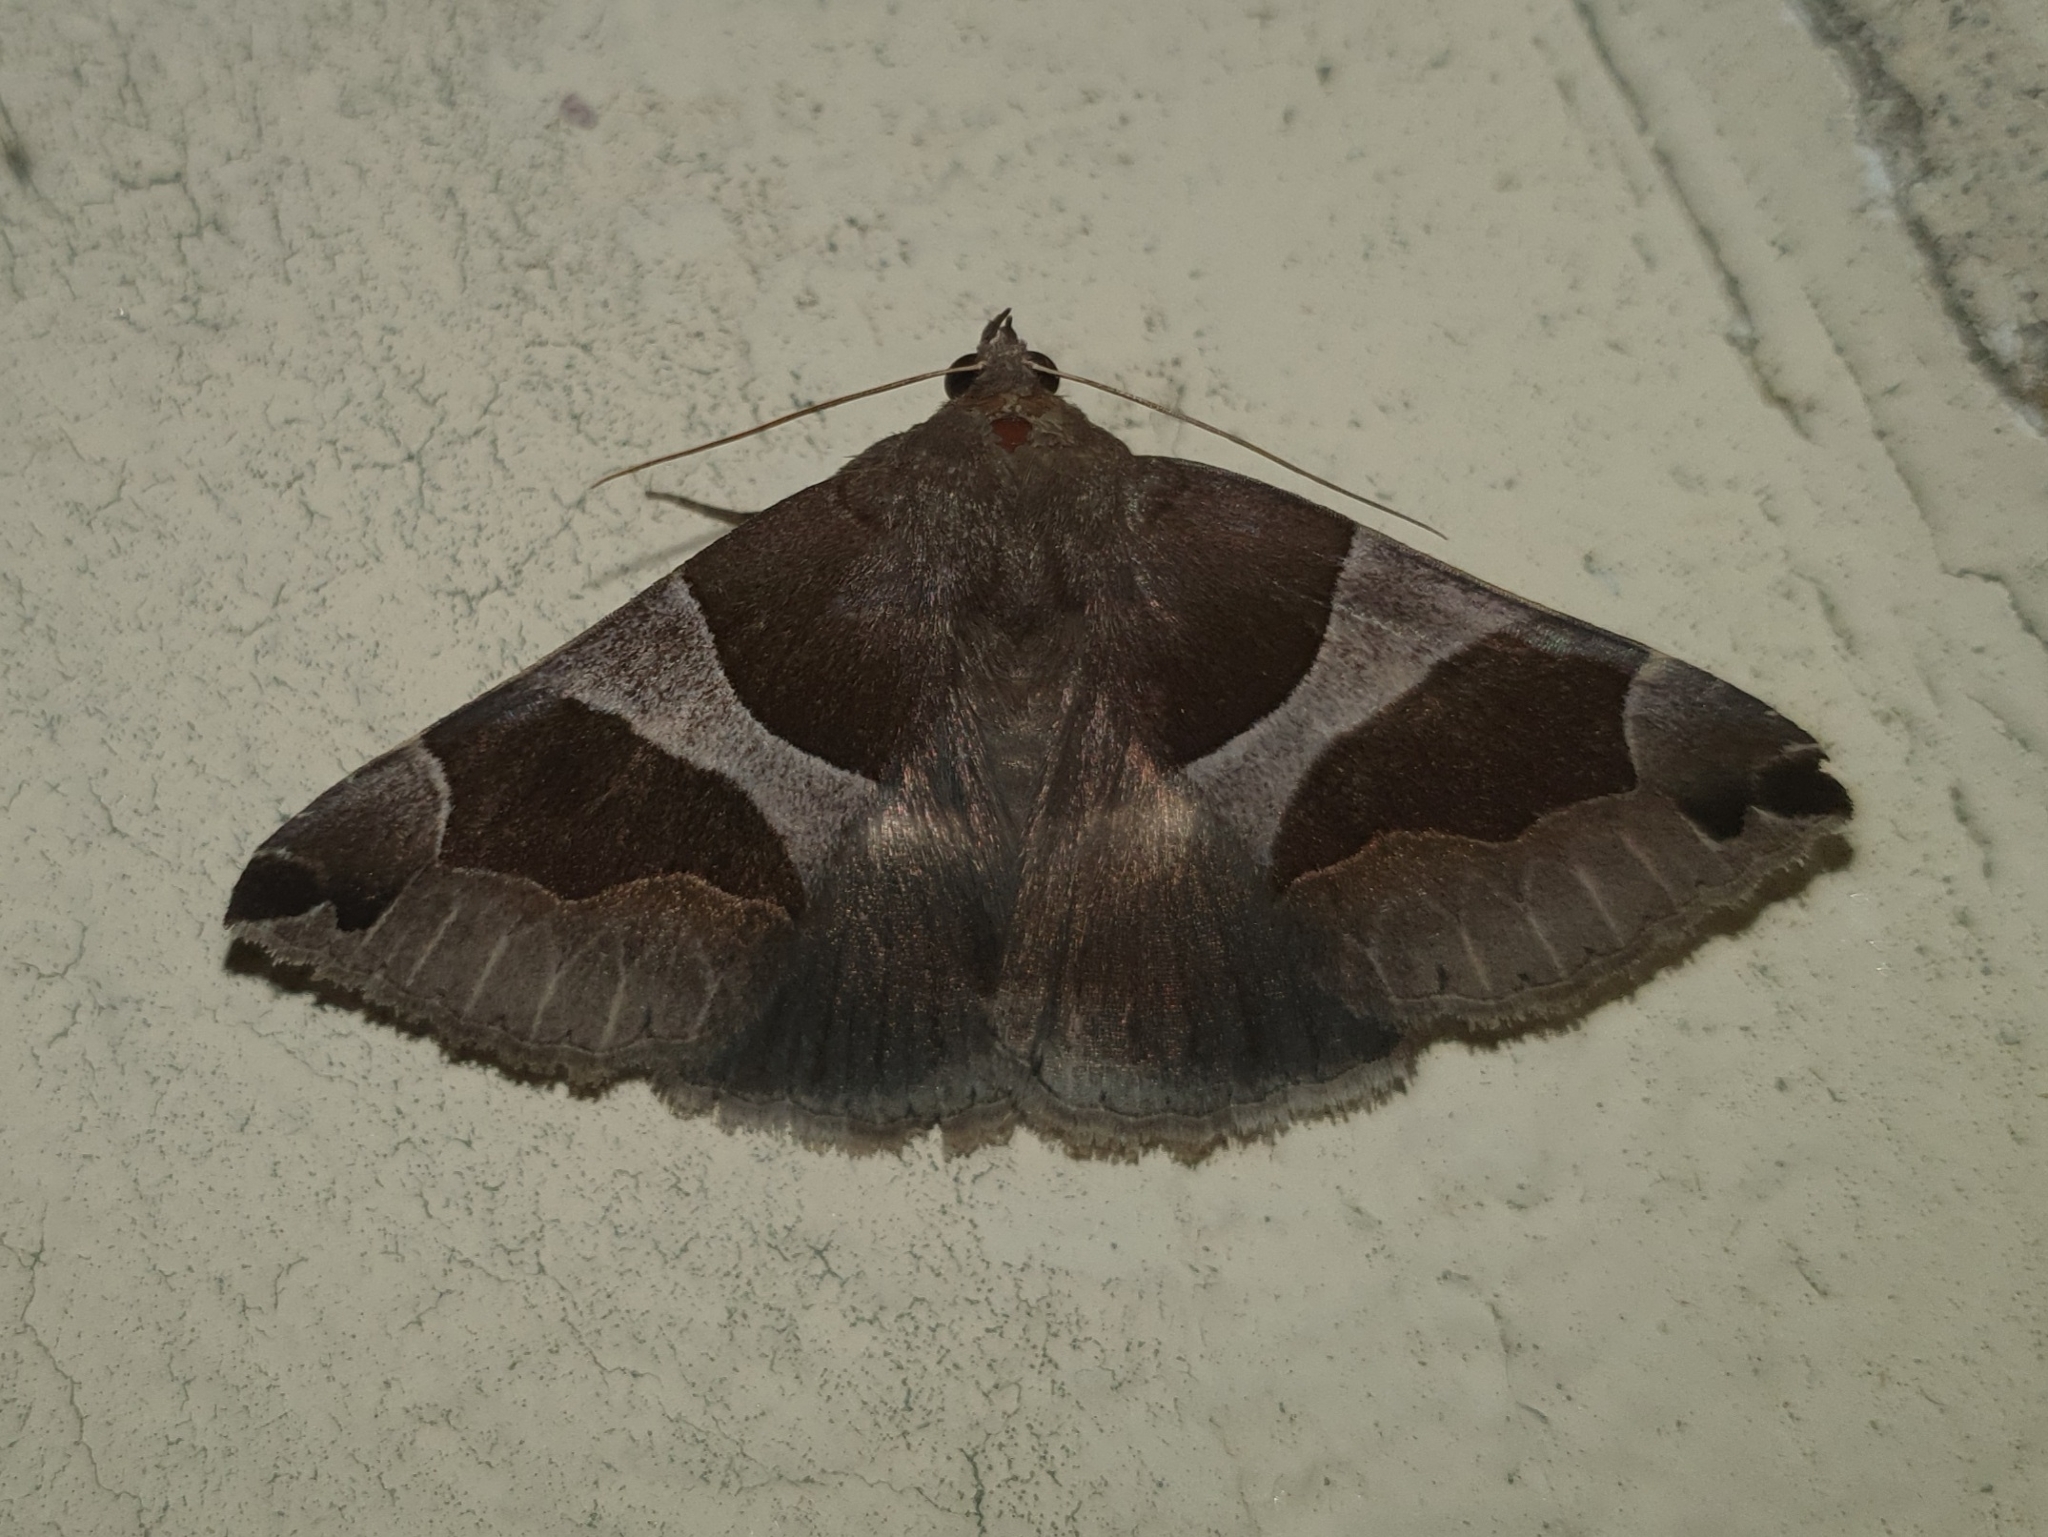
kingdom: Animalia
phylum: Arthropoda
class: Insecta
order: Lepidoptera
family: Erebidae
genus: Dysgonia
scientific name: Dysgonia algira
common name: Passenger
